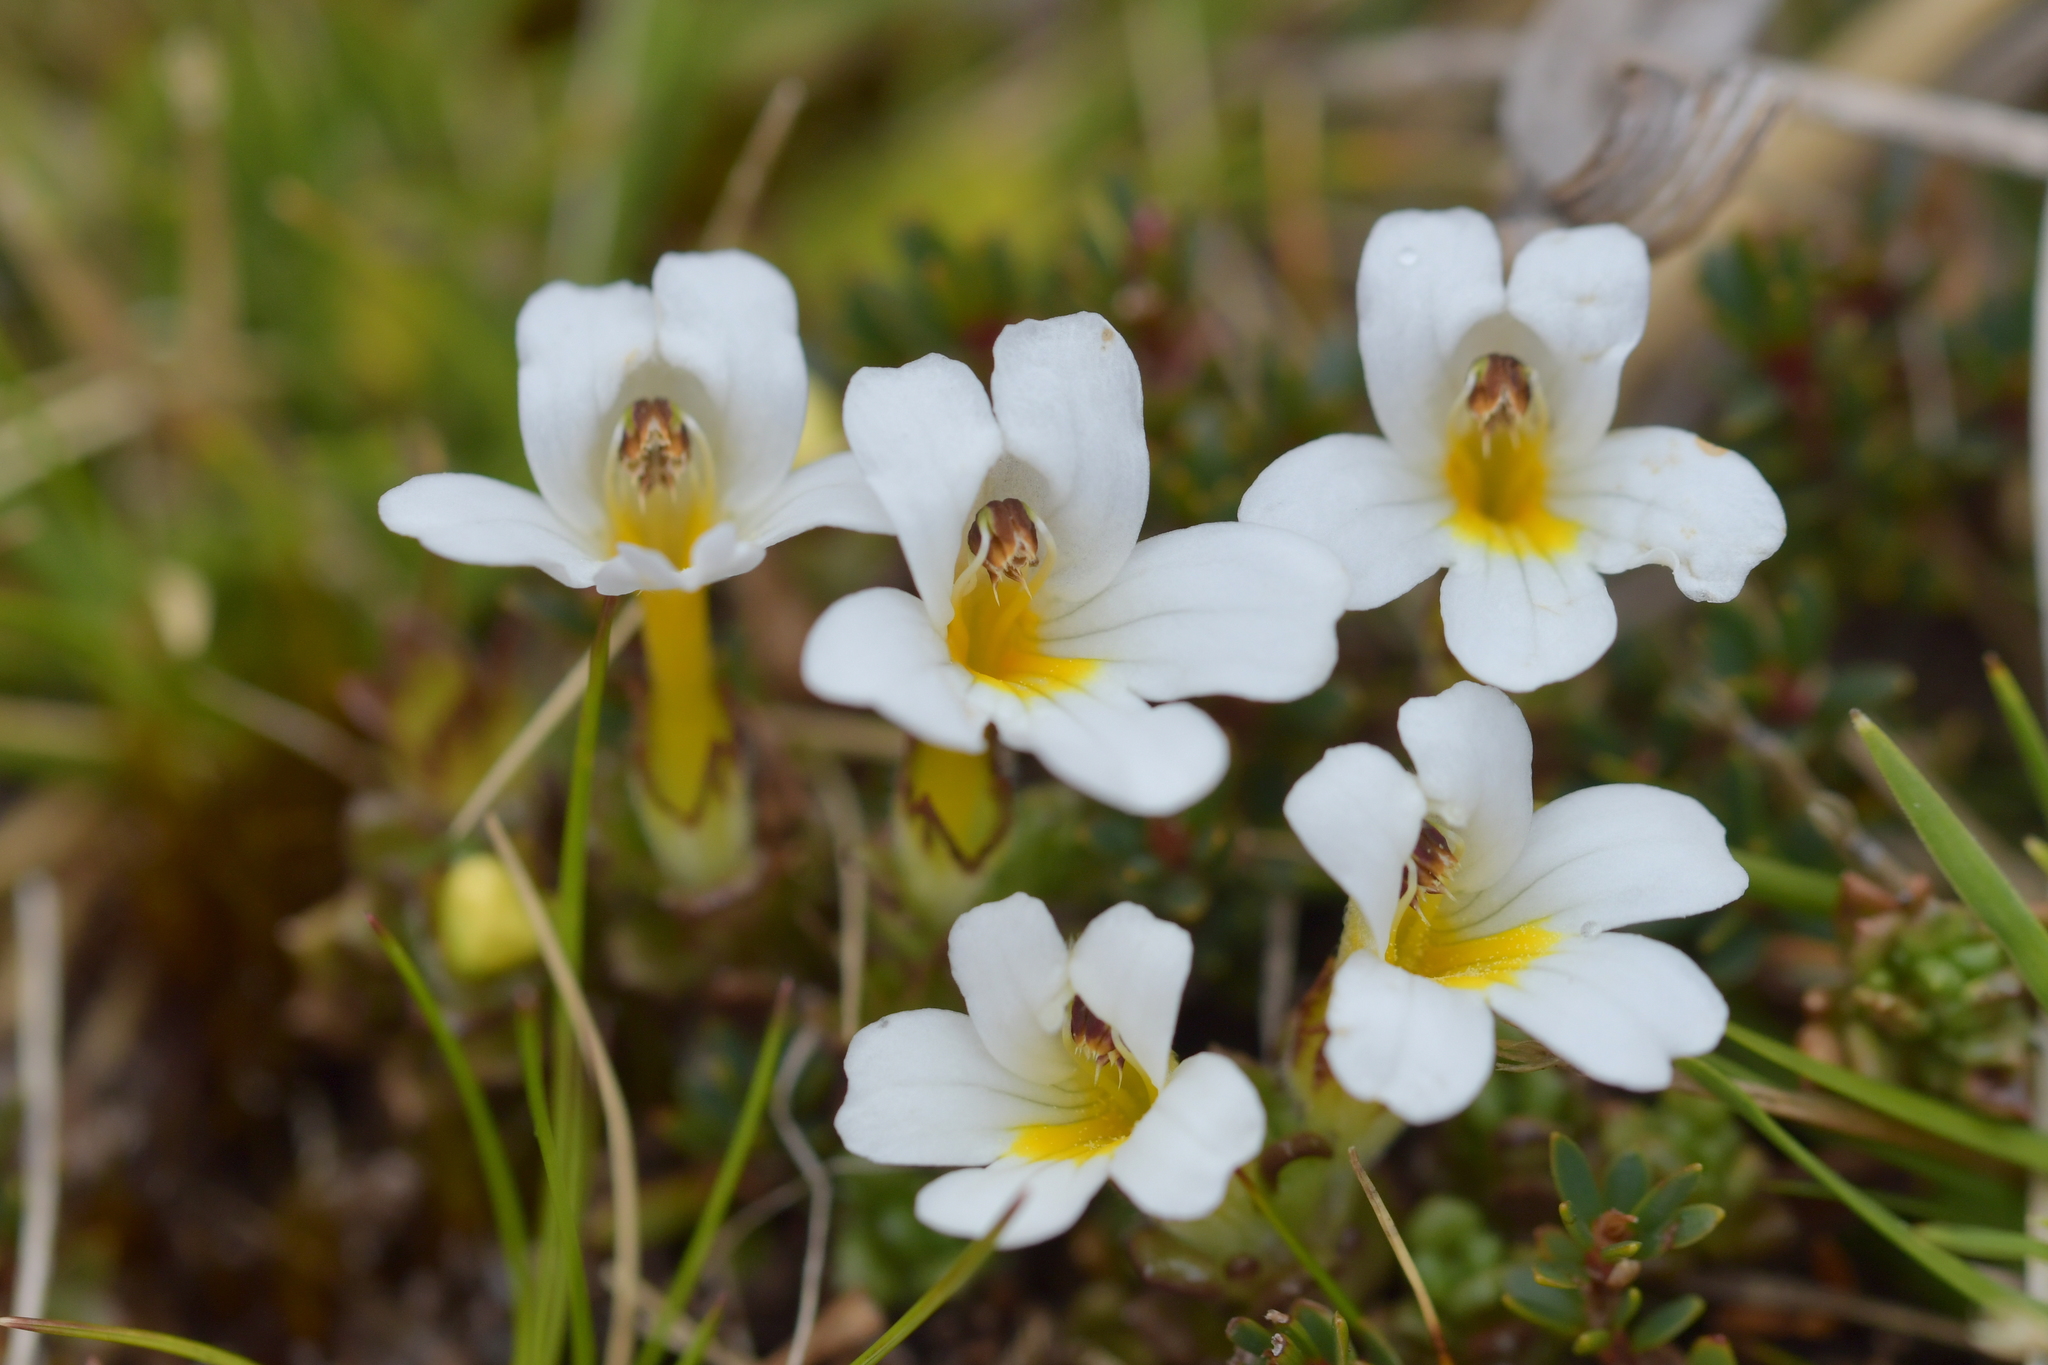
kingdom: Plantae
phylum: Tracheophyta
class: Magnoliopsida
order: Lamiales
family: Orobanchaceae
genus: Euphrasia
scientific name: Euphrasia revoluta
